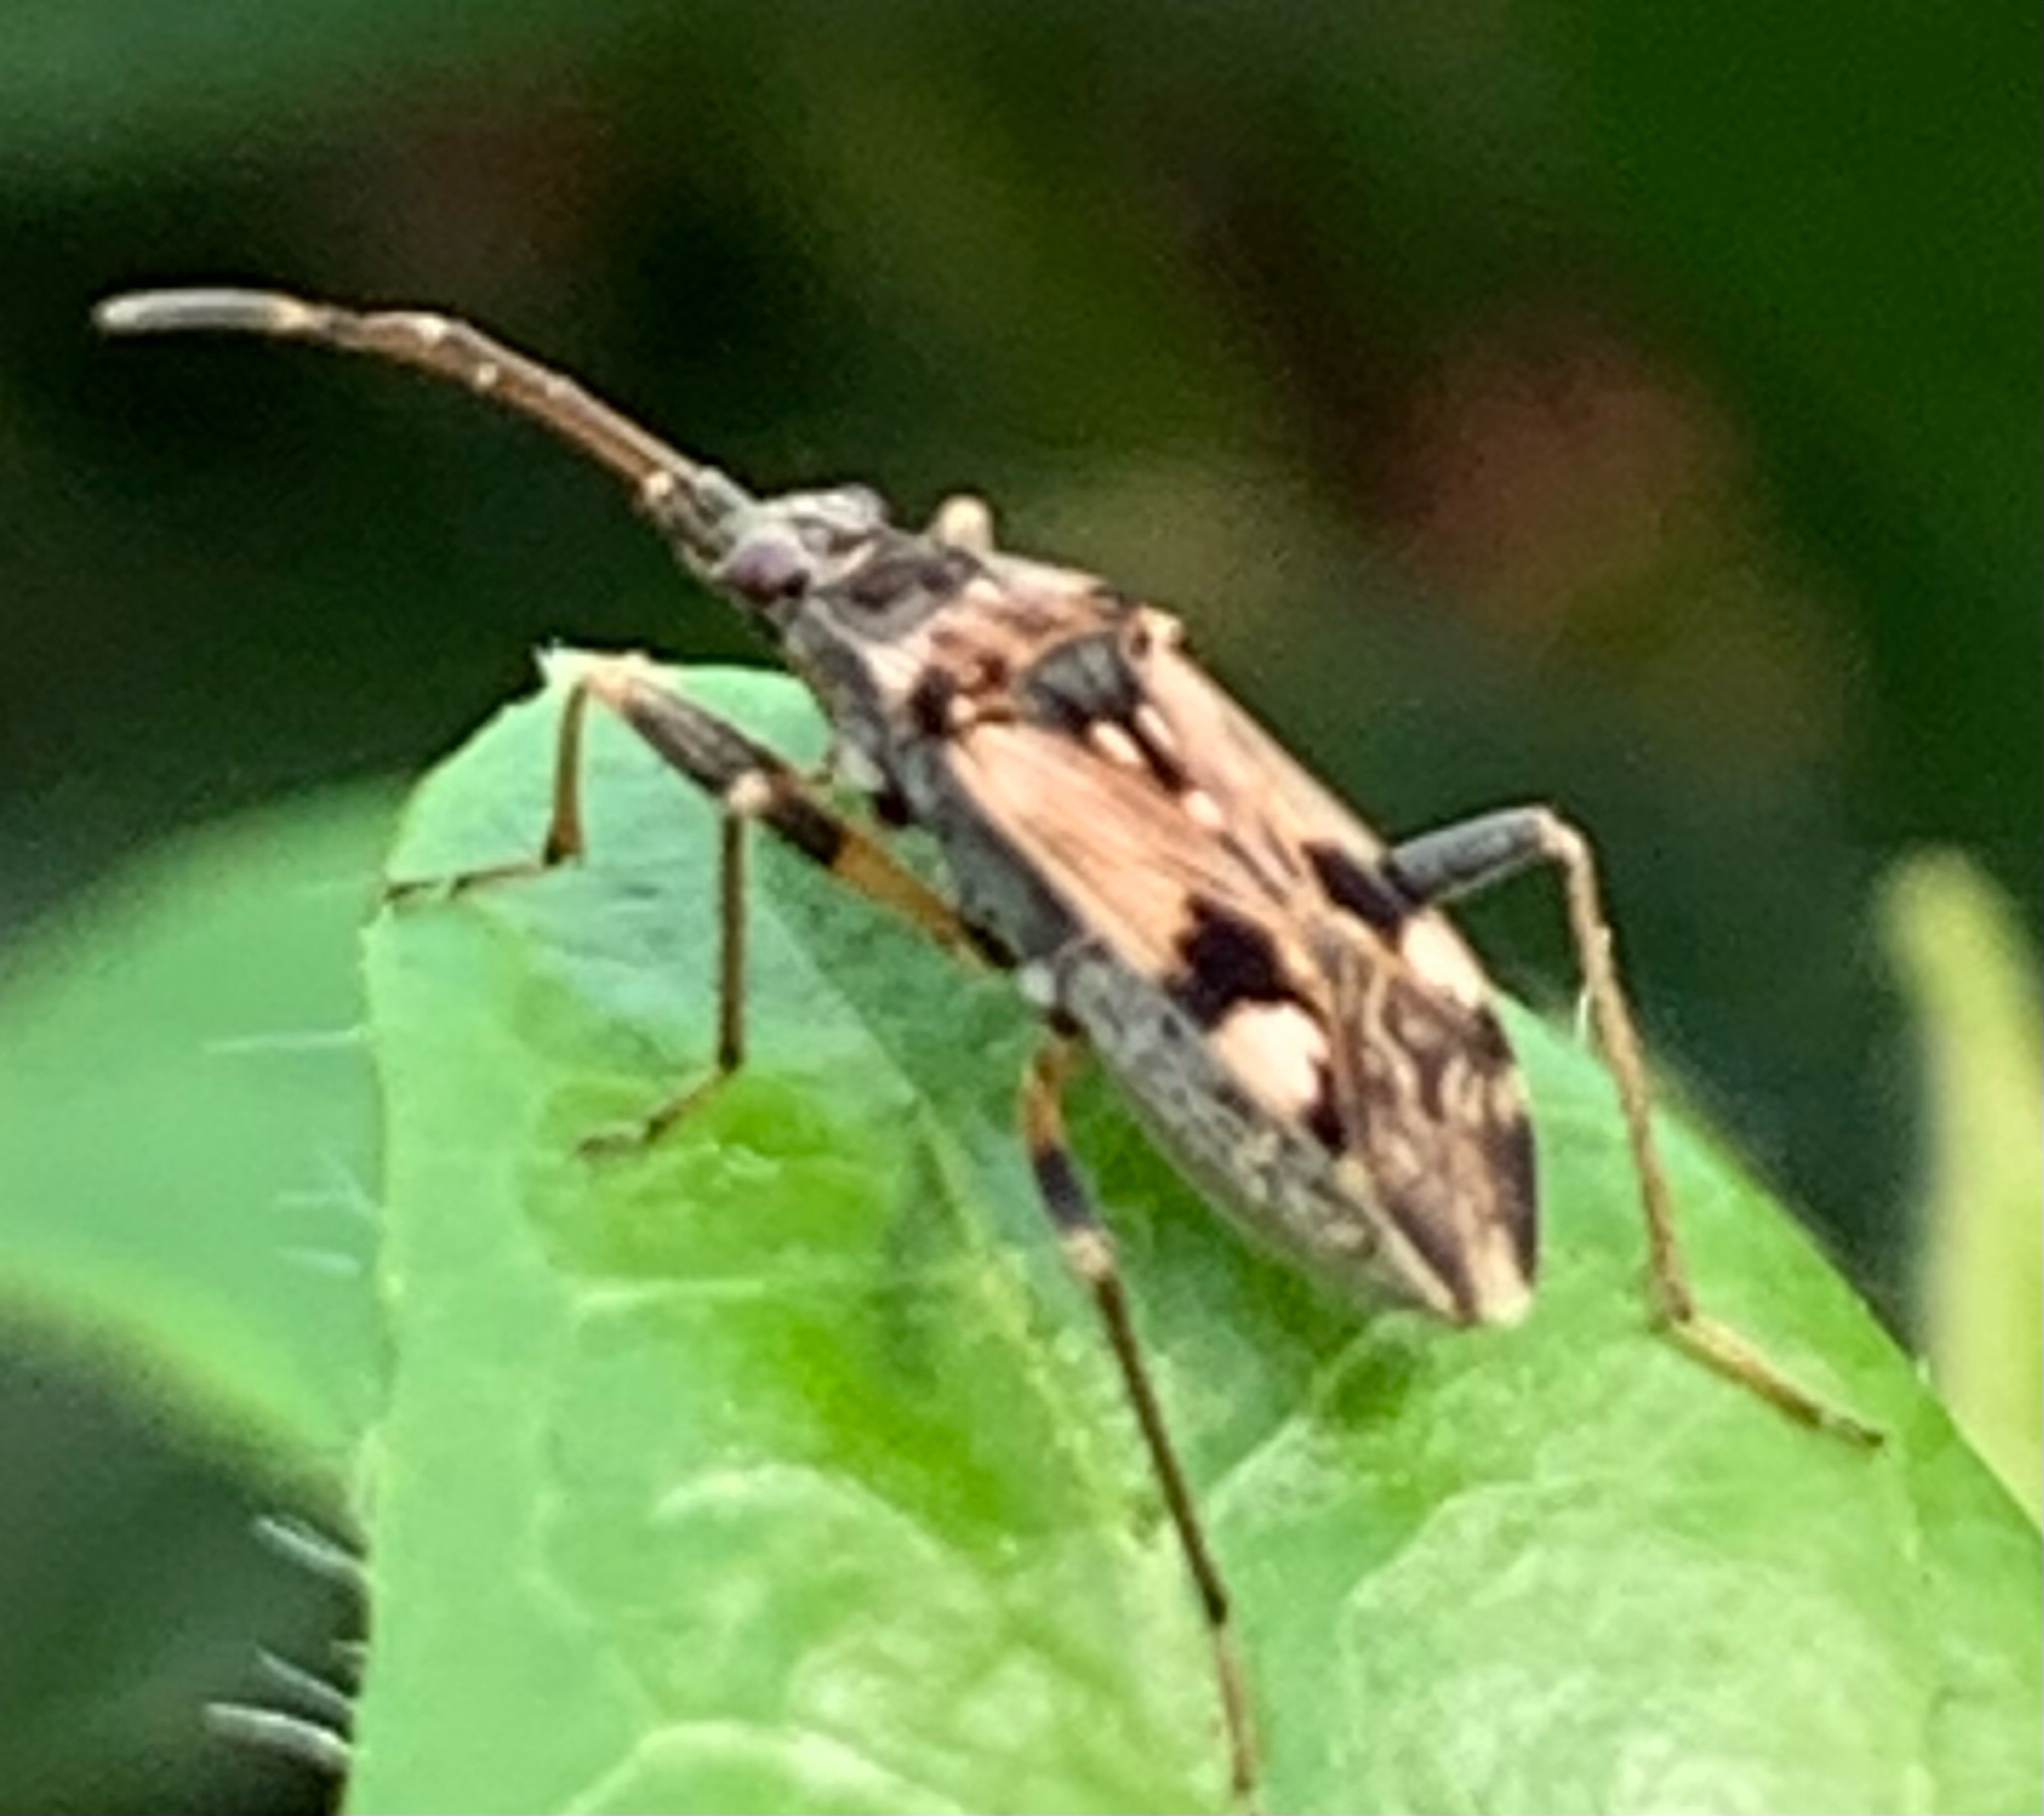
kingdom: Animalia
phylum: Arthropoda
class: Insecta
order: Hemiptera
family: Rhyparochromidae
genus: Beosus
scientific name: Beosus maritimus
